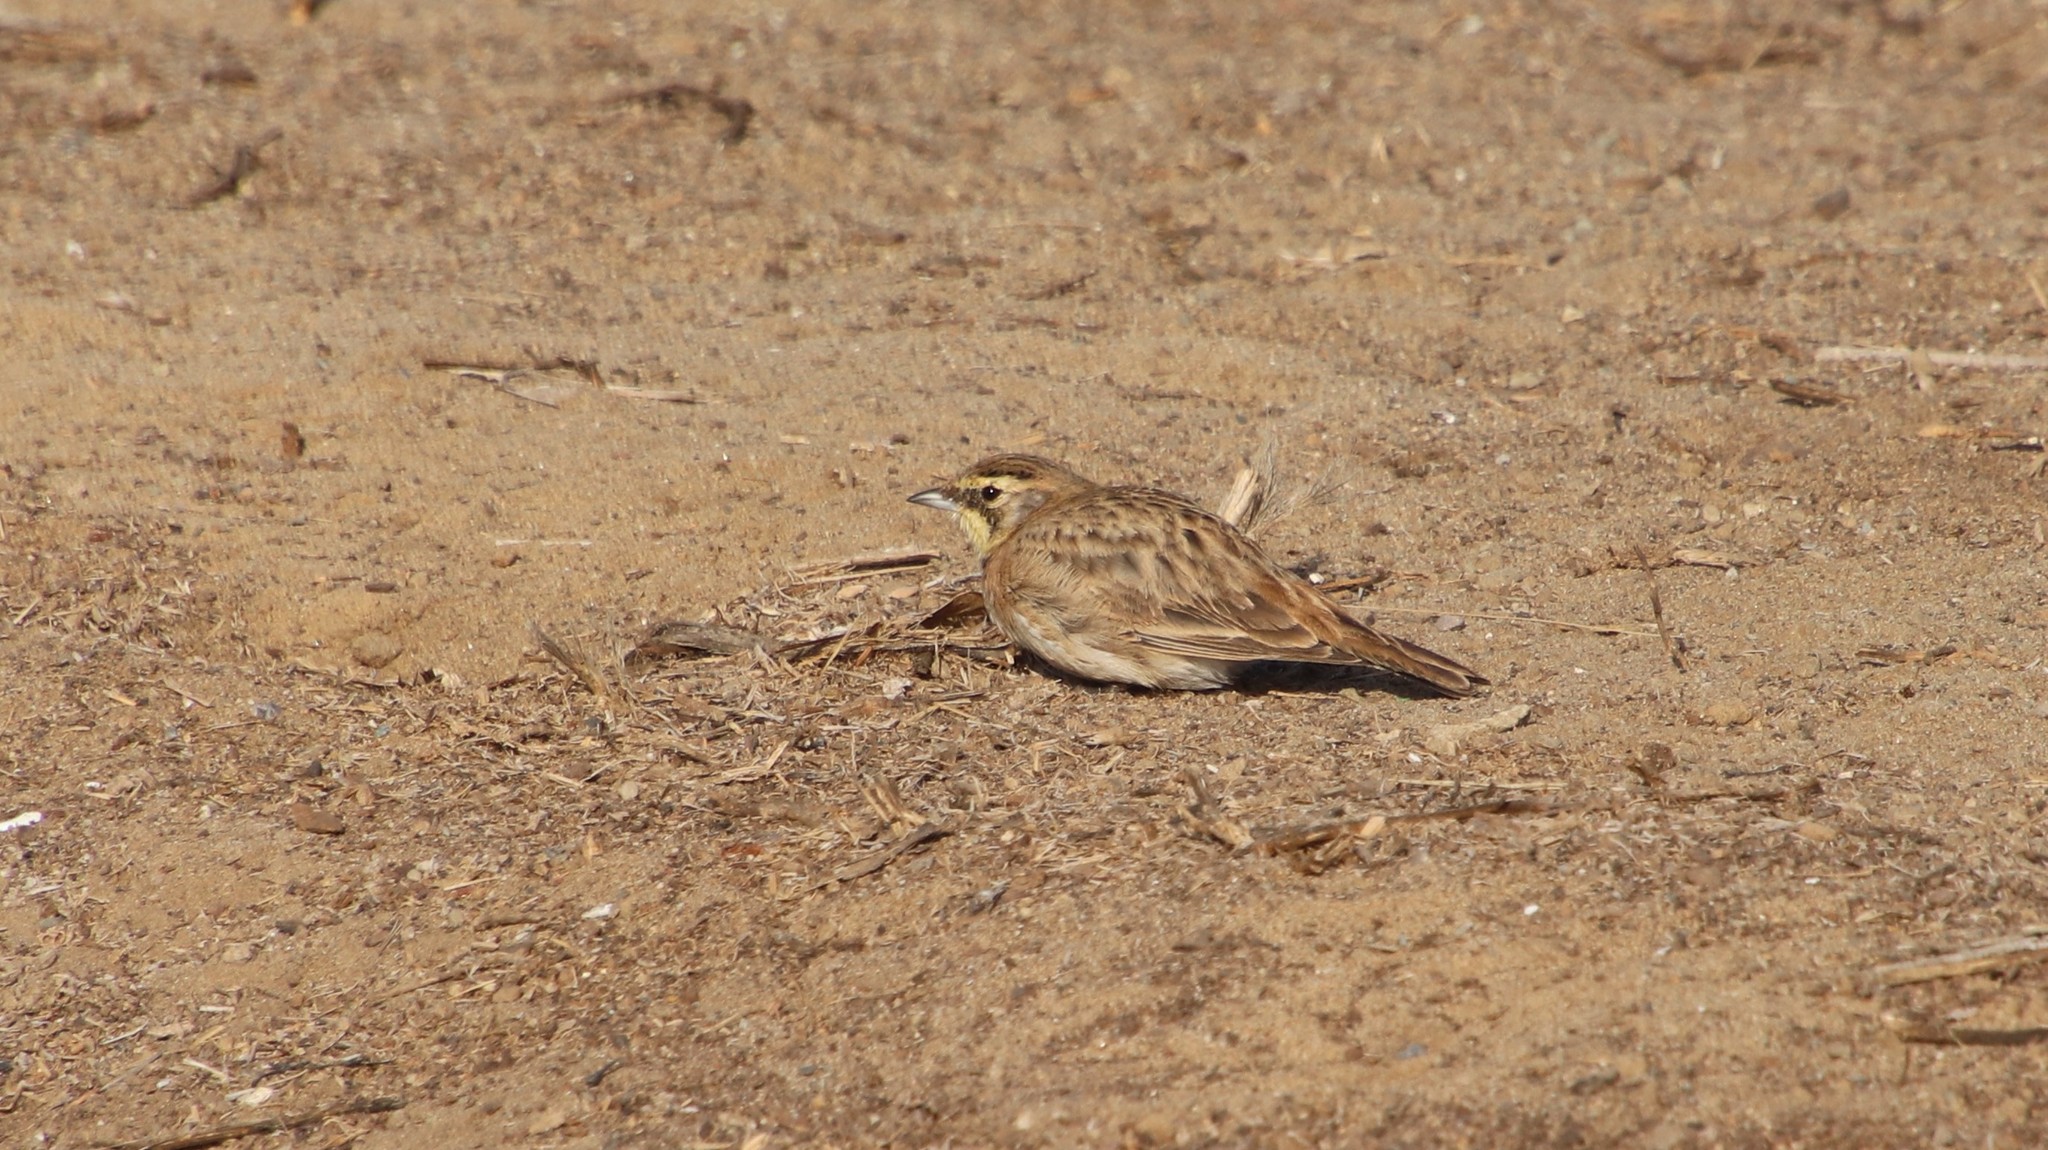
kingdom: Animalia
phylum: Chordata
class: Aves
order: Passeriformes
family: Alaudidae
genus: Eremophila
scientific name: Eremophila alpestris
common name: Horned lark
